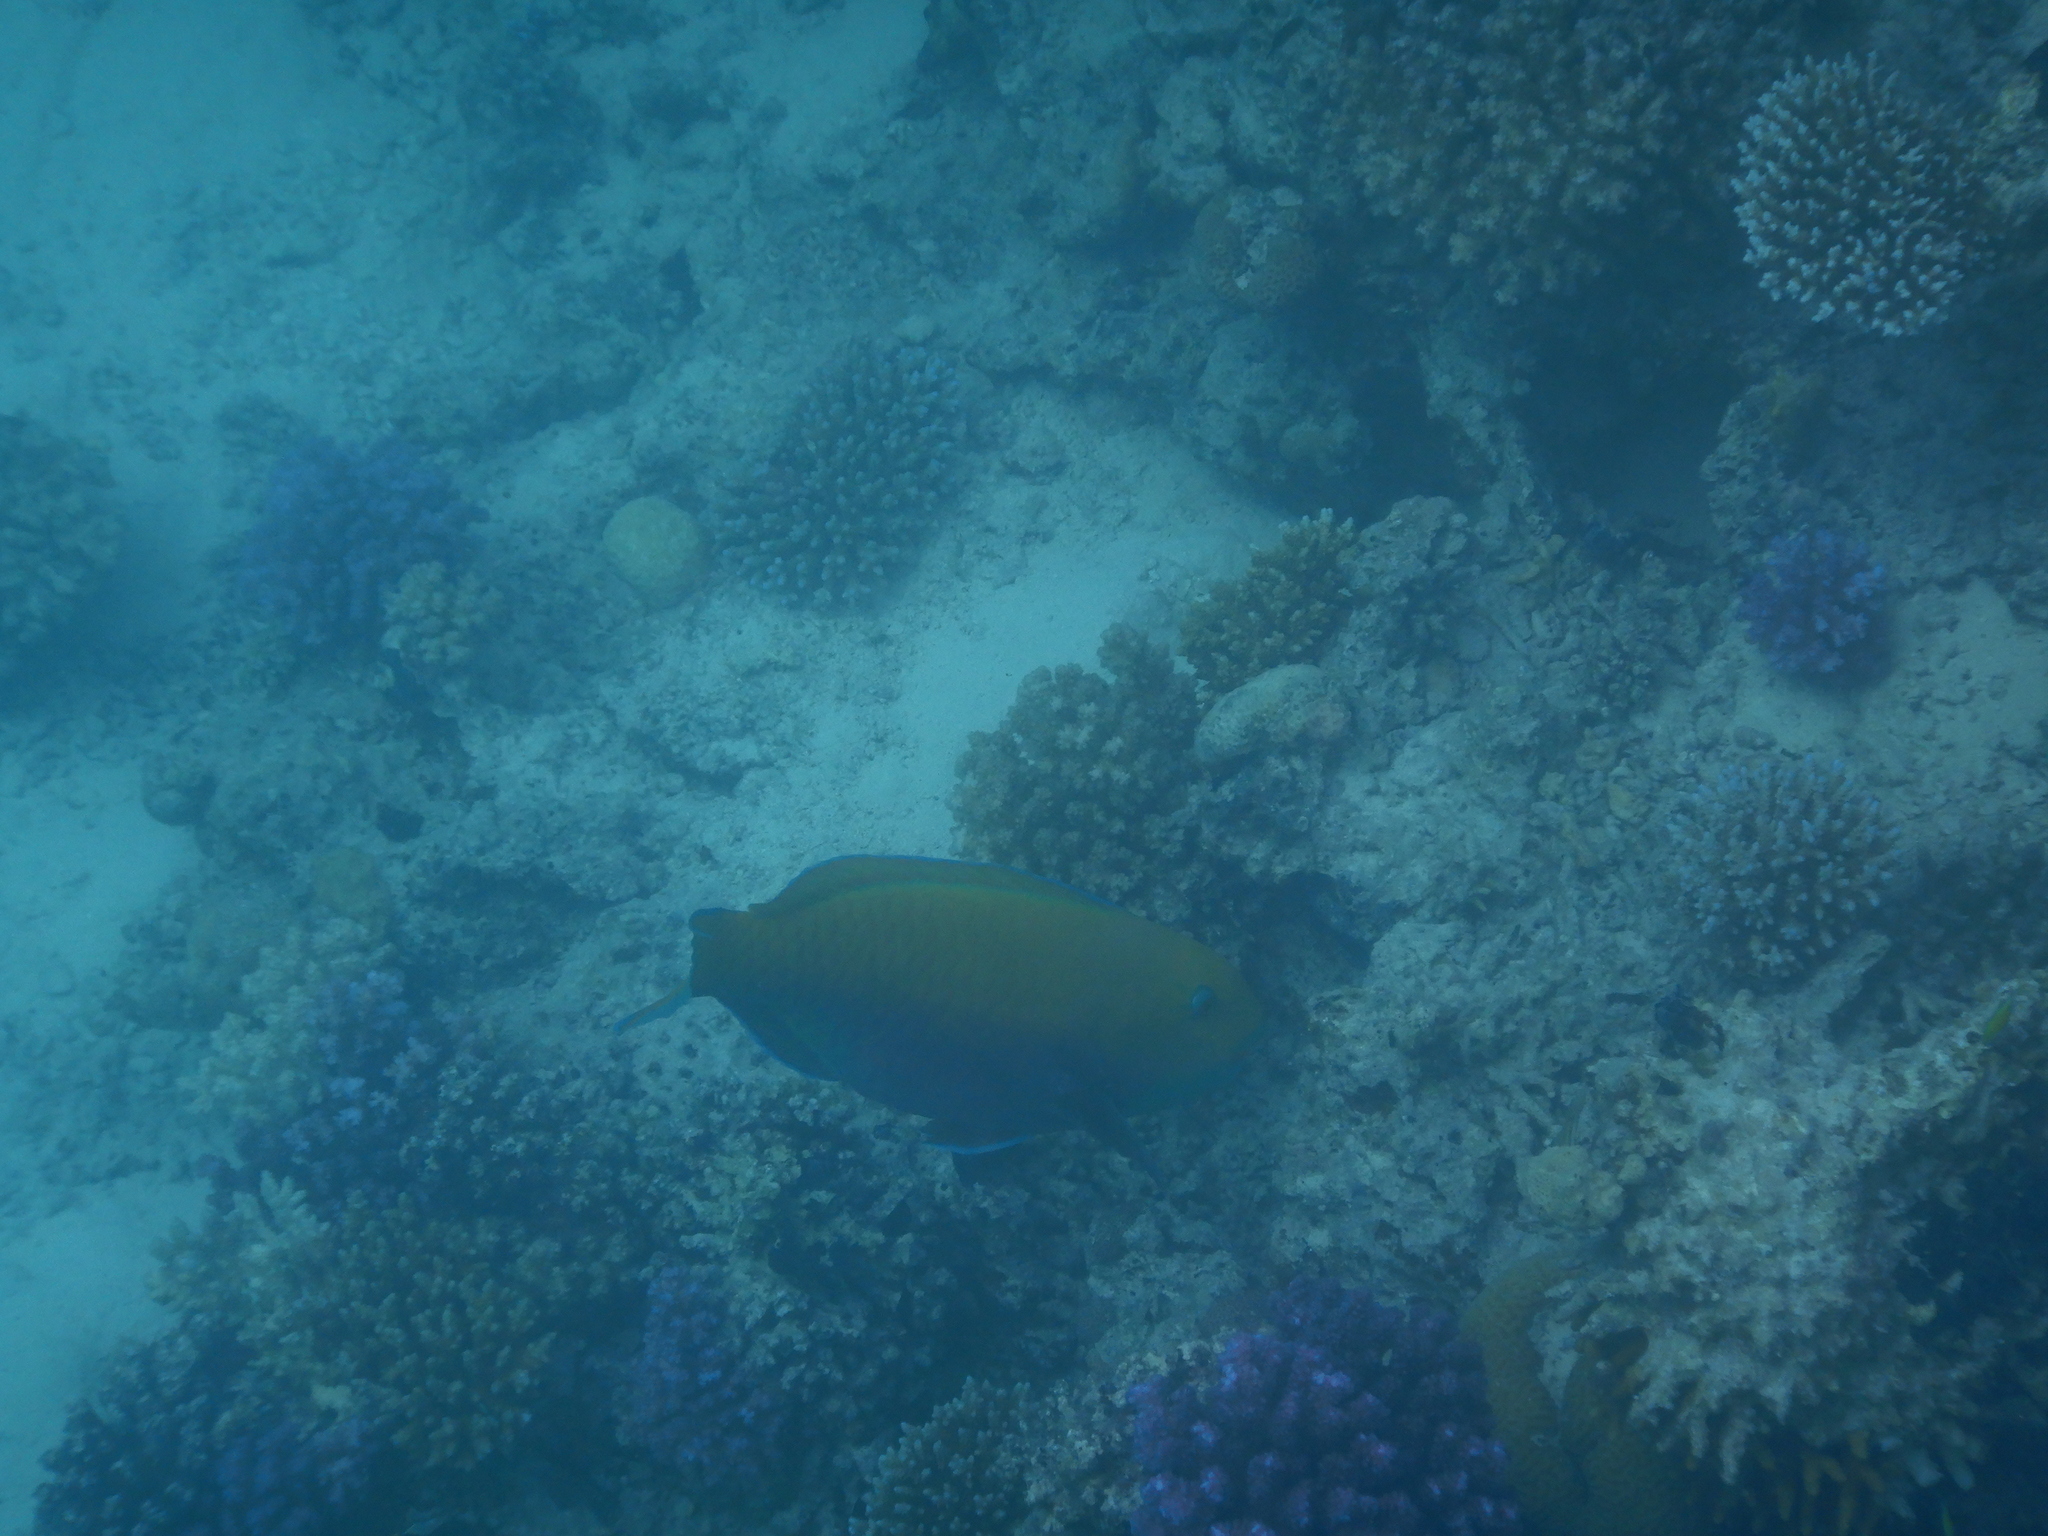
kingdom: Animalia
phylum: Chordata
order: Perciformes
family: Scaridae
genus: Chlorurus
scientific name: Chlorurus gibbus
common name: Heavybeak parrotfish
